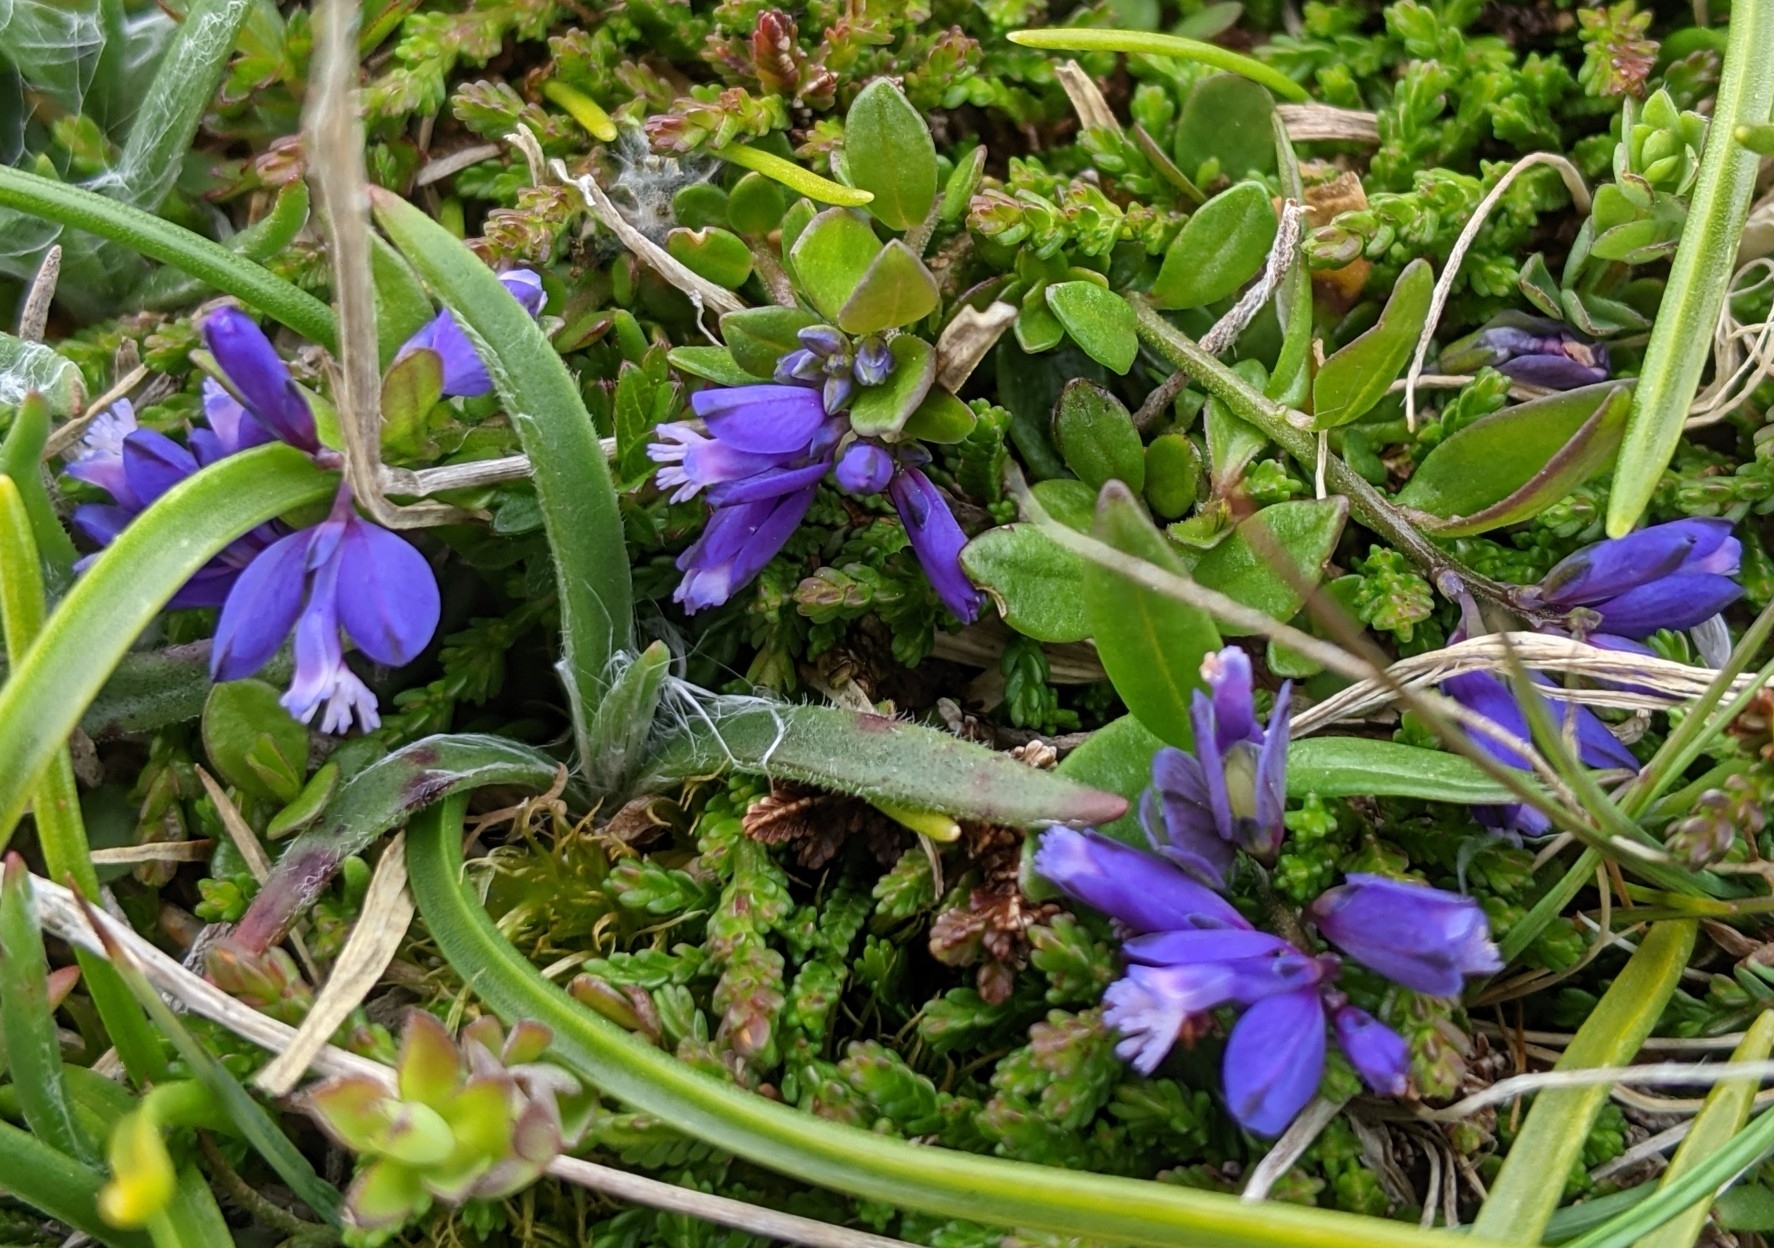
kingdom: Plantae
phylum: Tracheophyta
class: Magnoliopsida
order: Fabales
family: Polygalaceae
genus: Polygala
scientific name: Polygala vulgaris
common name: Common milkwort
